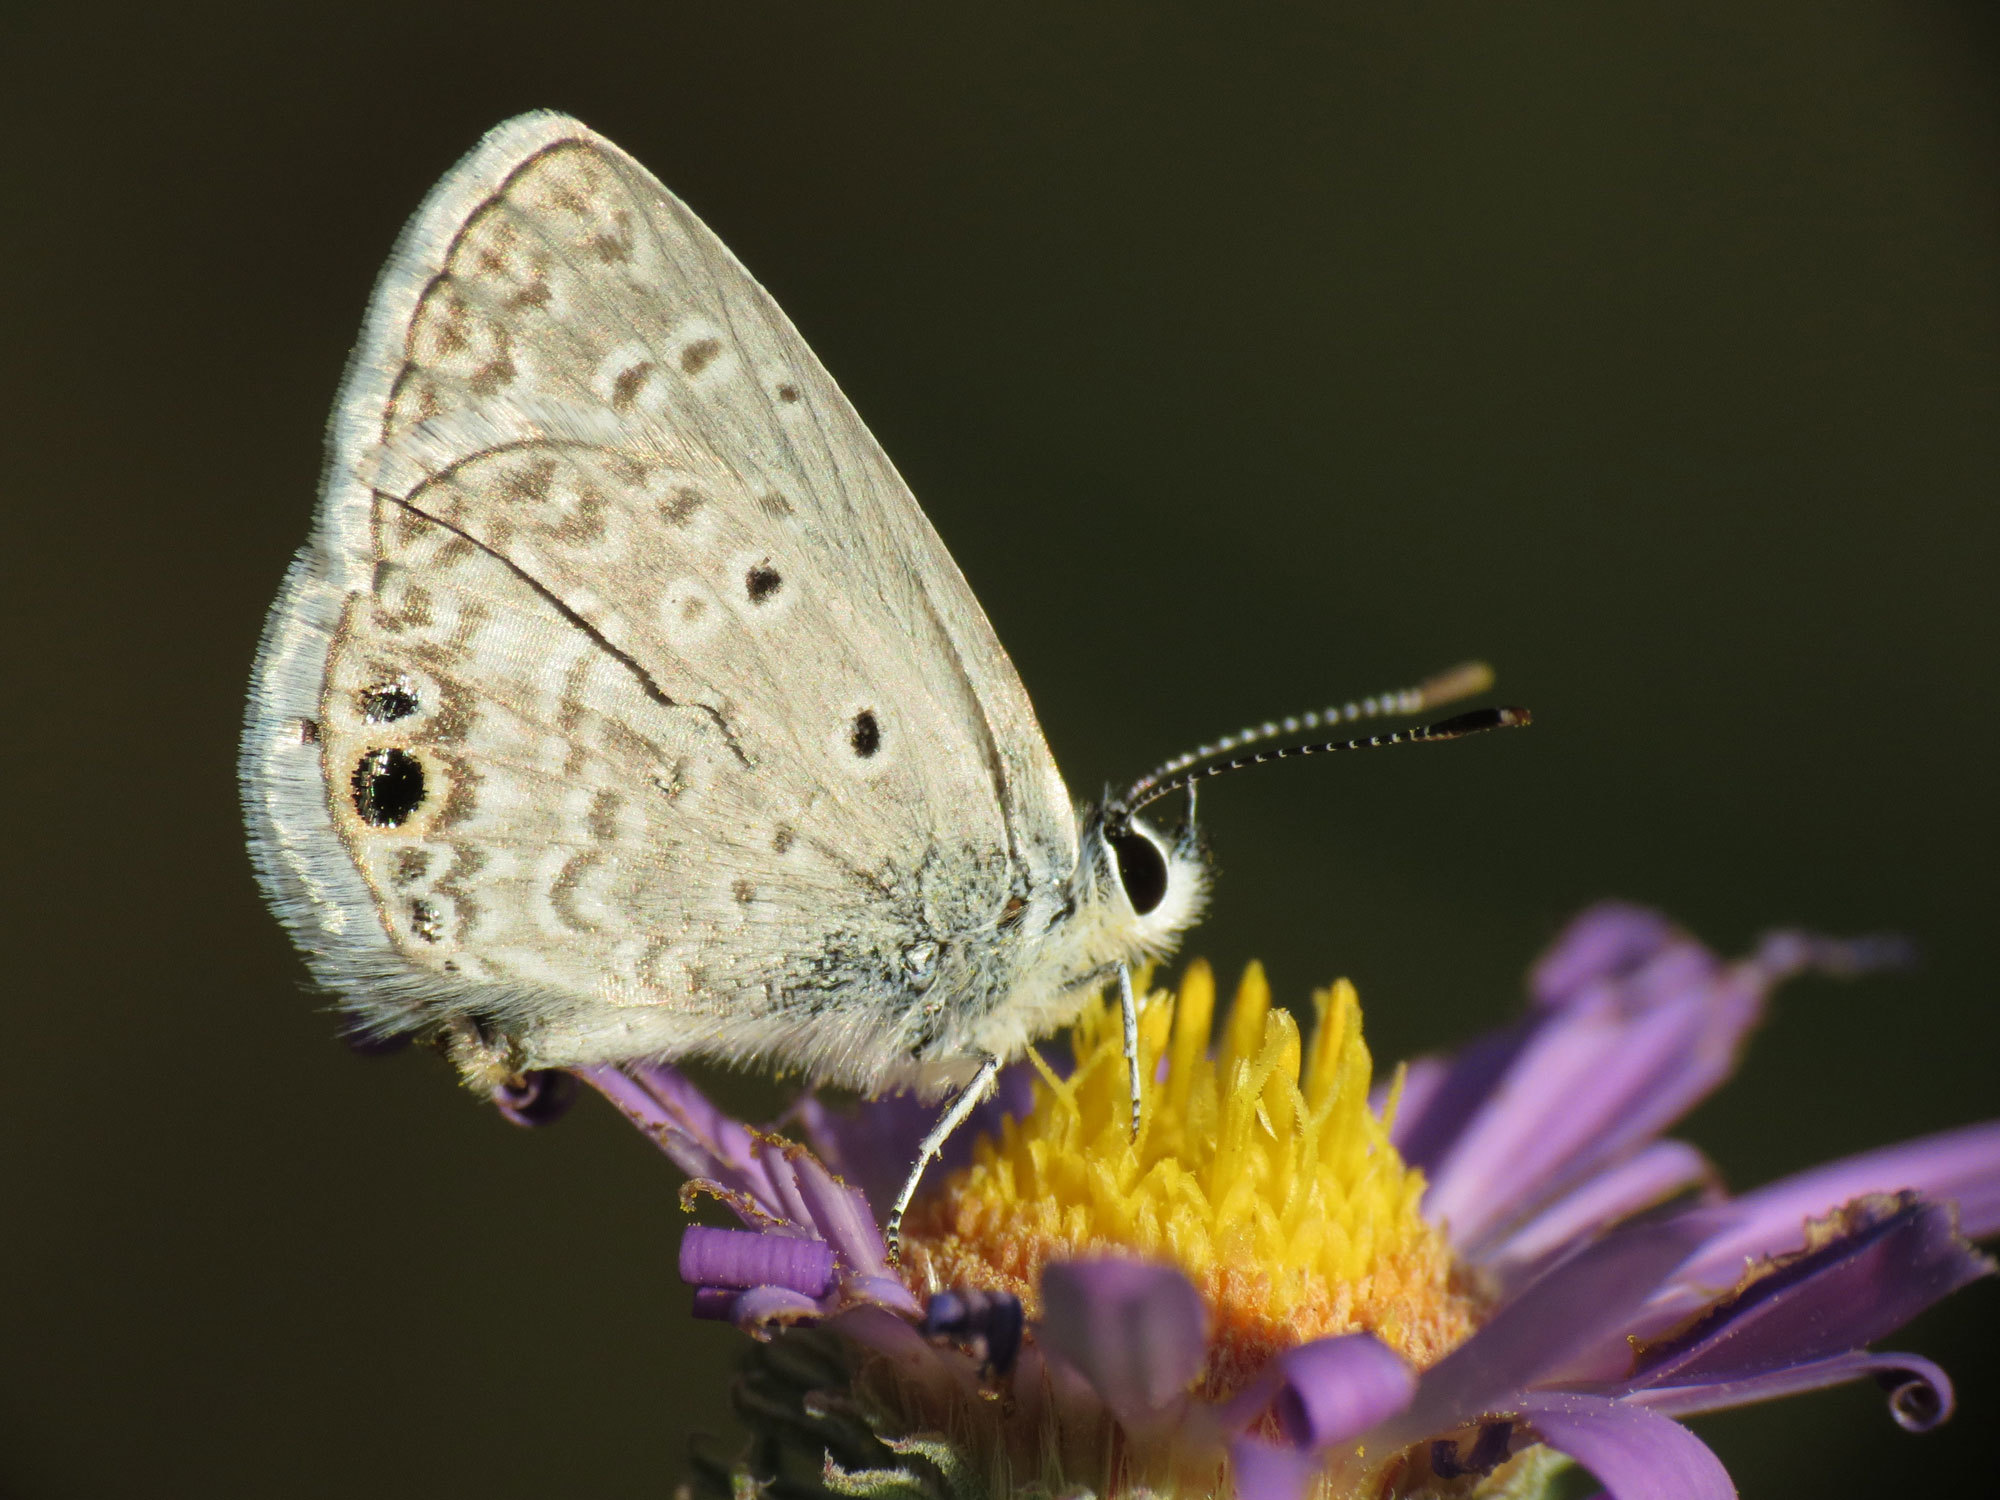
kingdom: Animalia
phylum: Arthropoda
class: Insecta
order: Lepidoptera
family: Lycaenidae
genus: Hemiargus
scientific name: Hemiargus ceraunus
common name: Ceraunus blue
